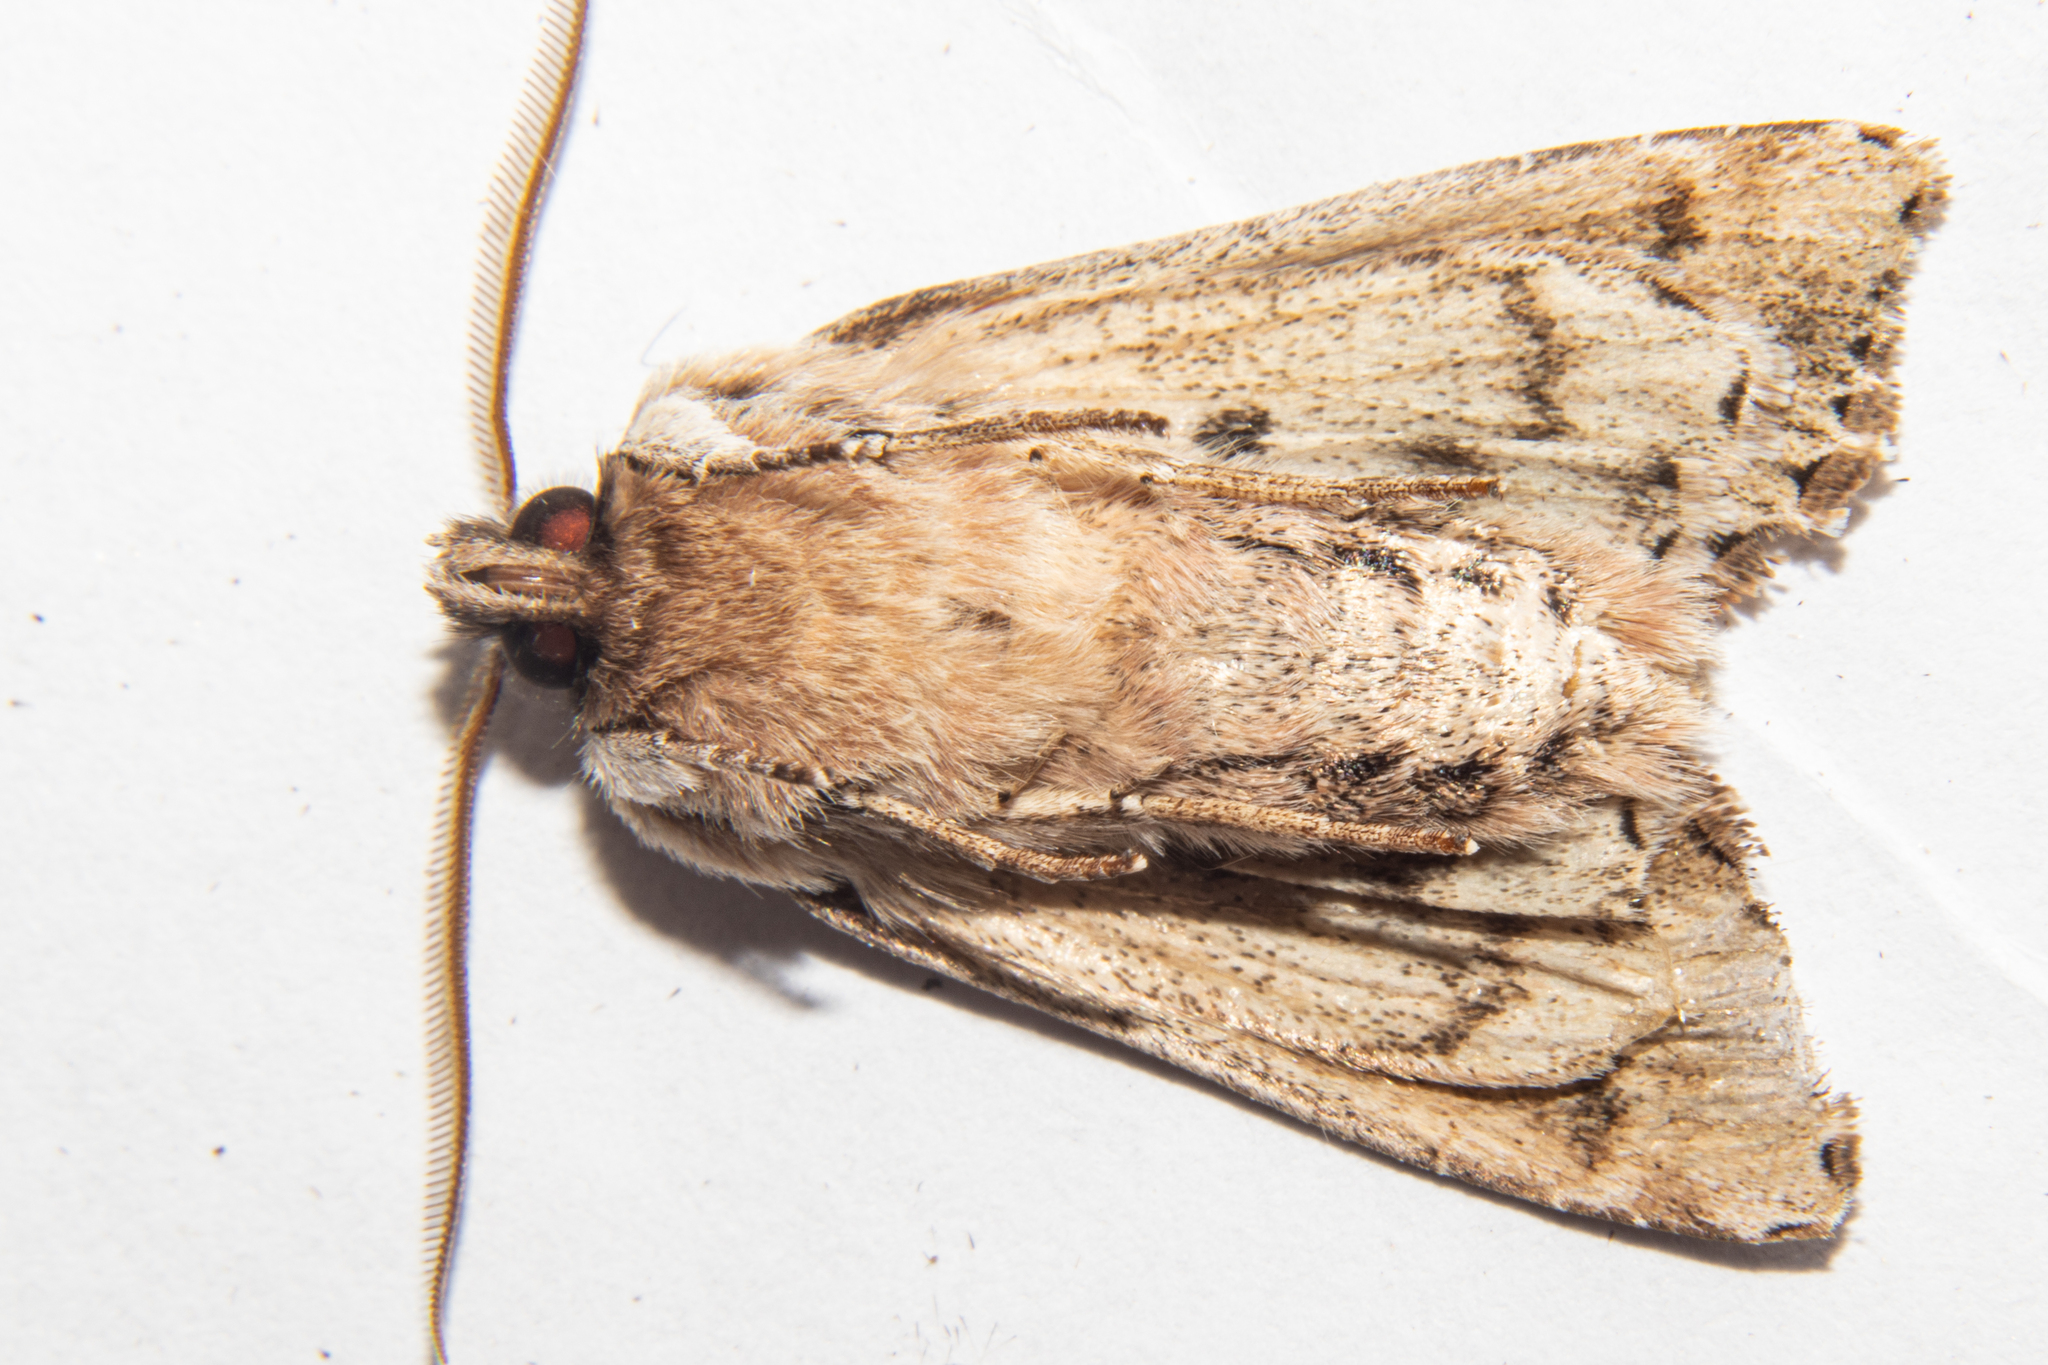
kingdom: Animalia
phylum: Arthropoda
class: Insecta
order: Lepidoptera
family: Noctuidae
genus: Ichneutica
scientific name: Ichneutica
